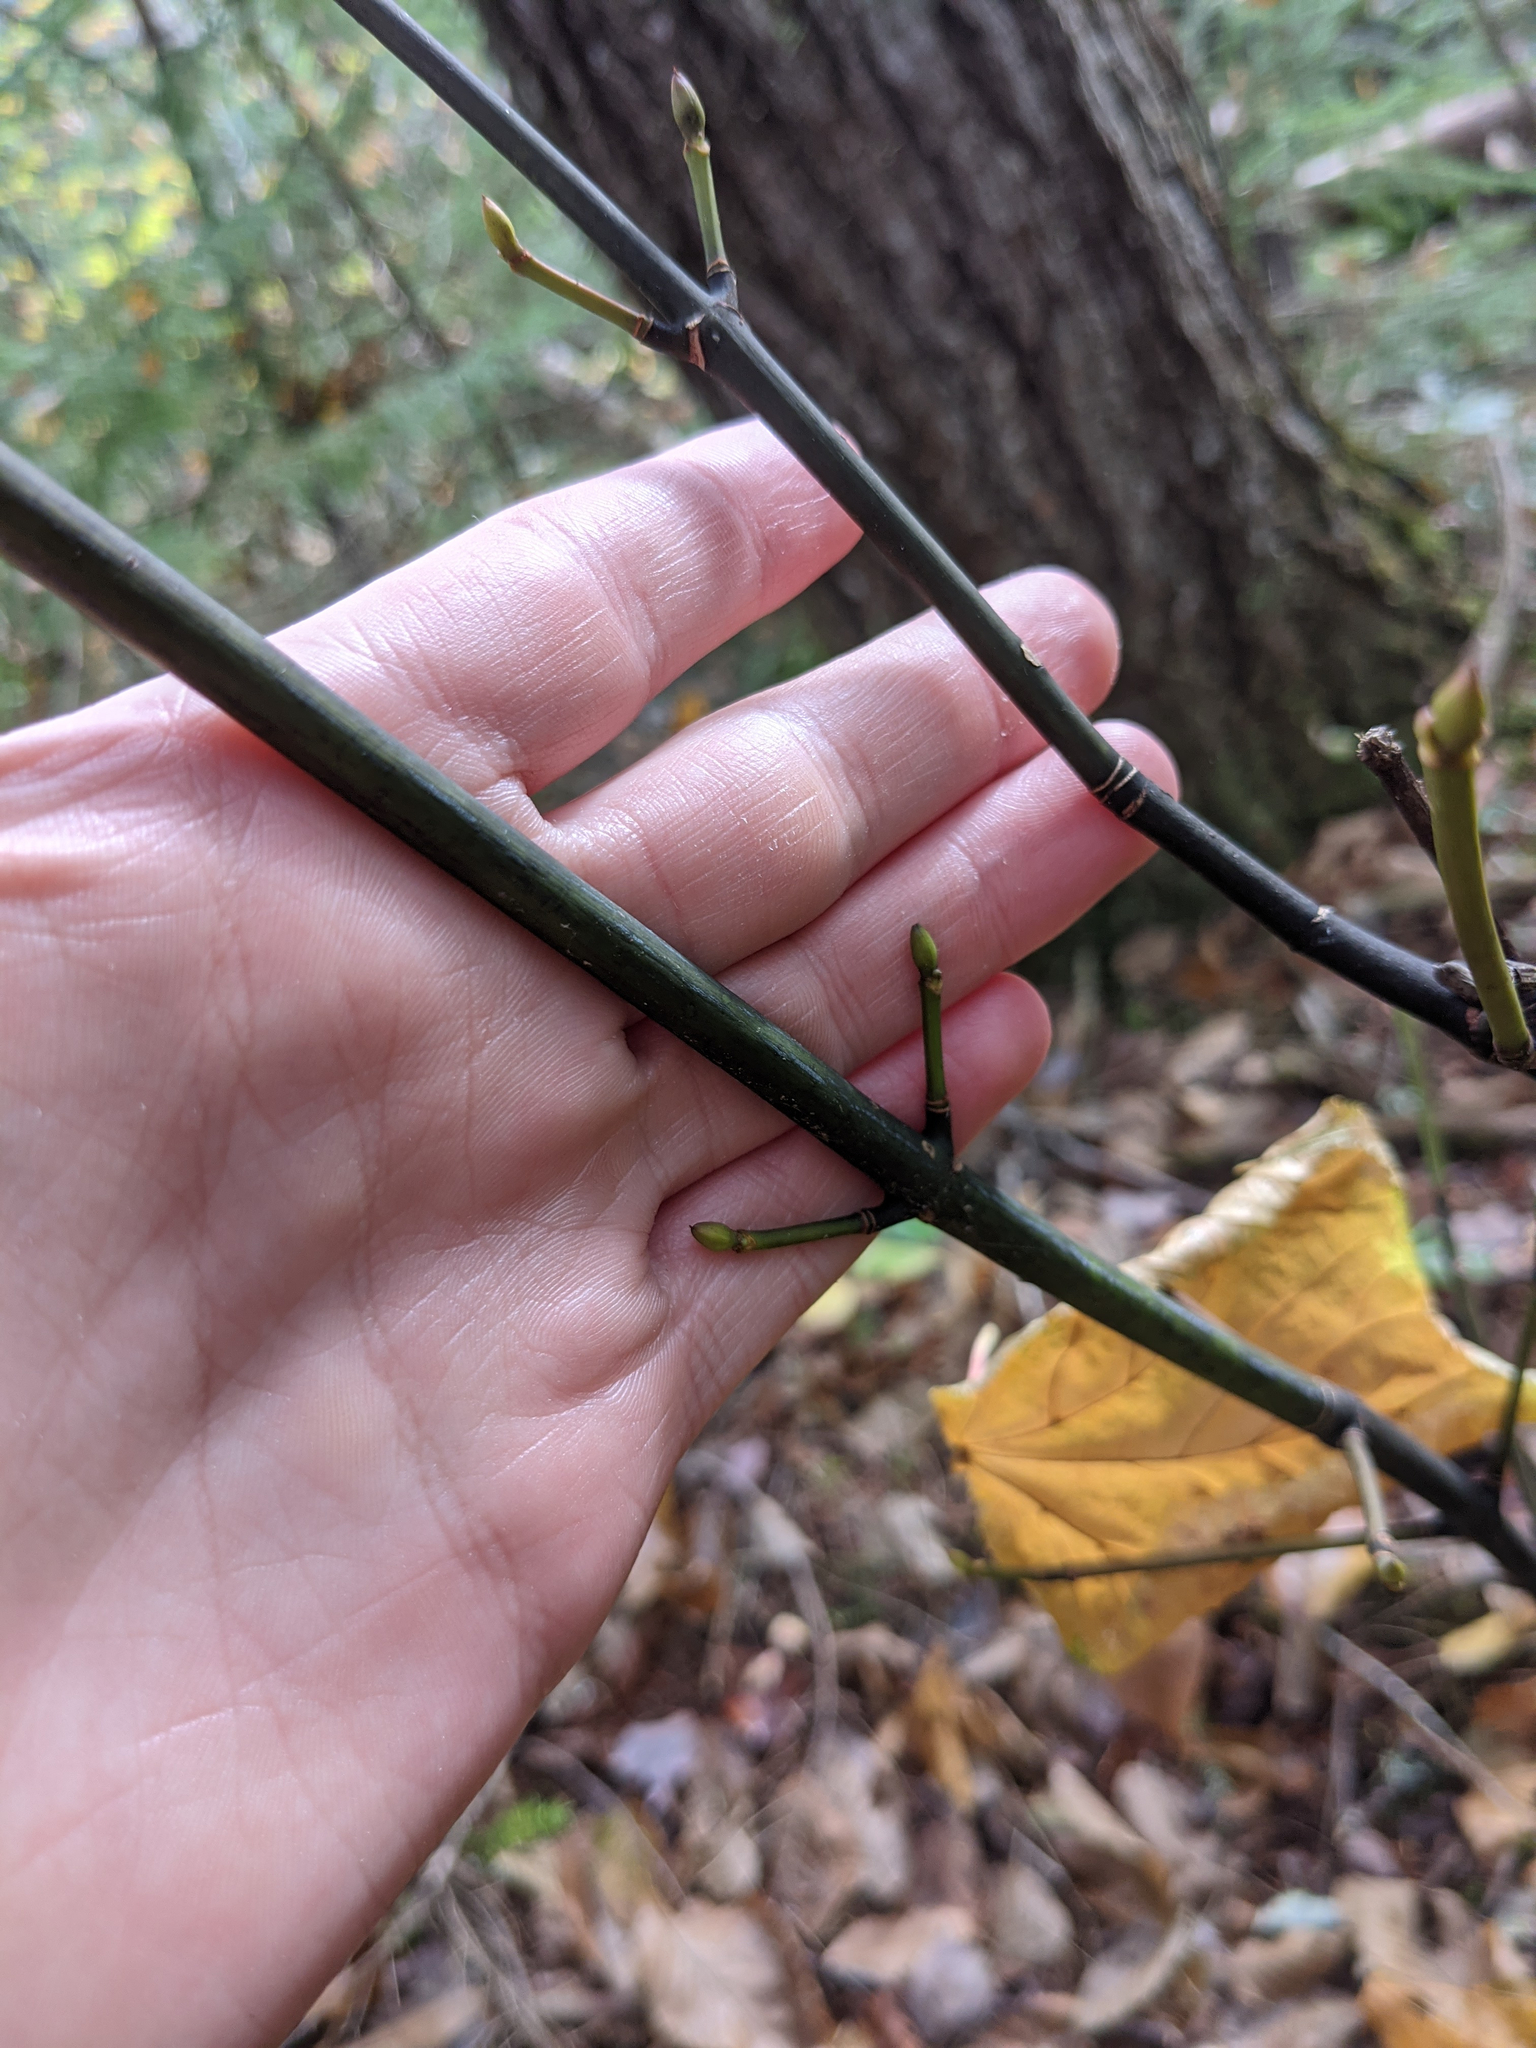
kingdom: Plantae
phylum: Tracheophyta
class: Magnoliopsida
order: Sapindales
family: Sapindaceae
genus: Acer
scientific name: Acer pensylvanicum
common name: Moosewood
